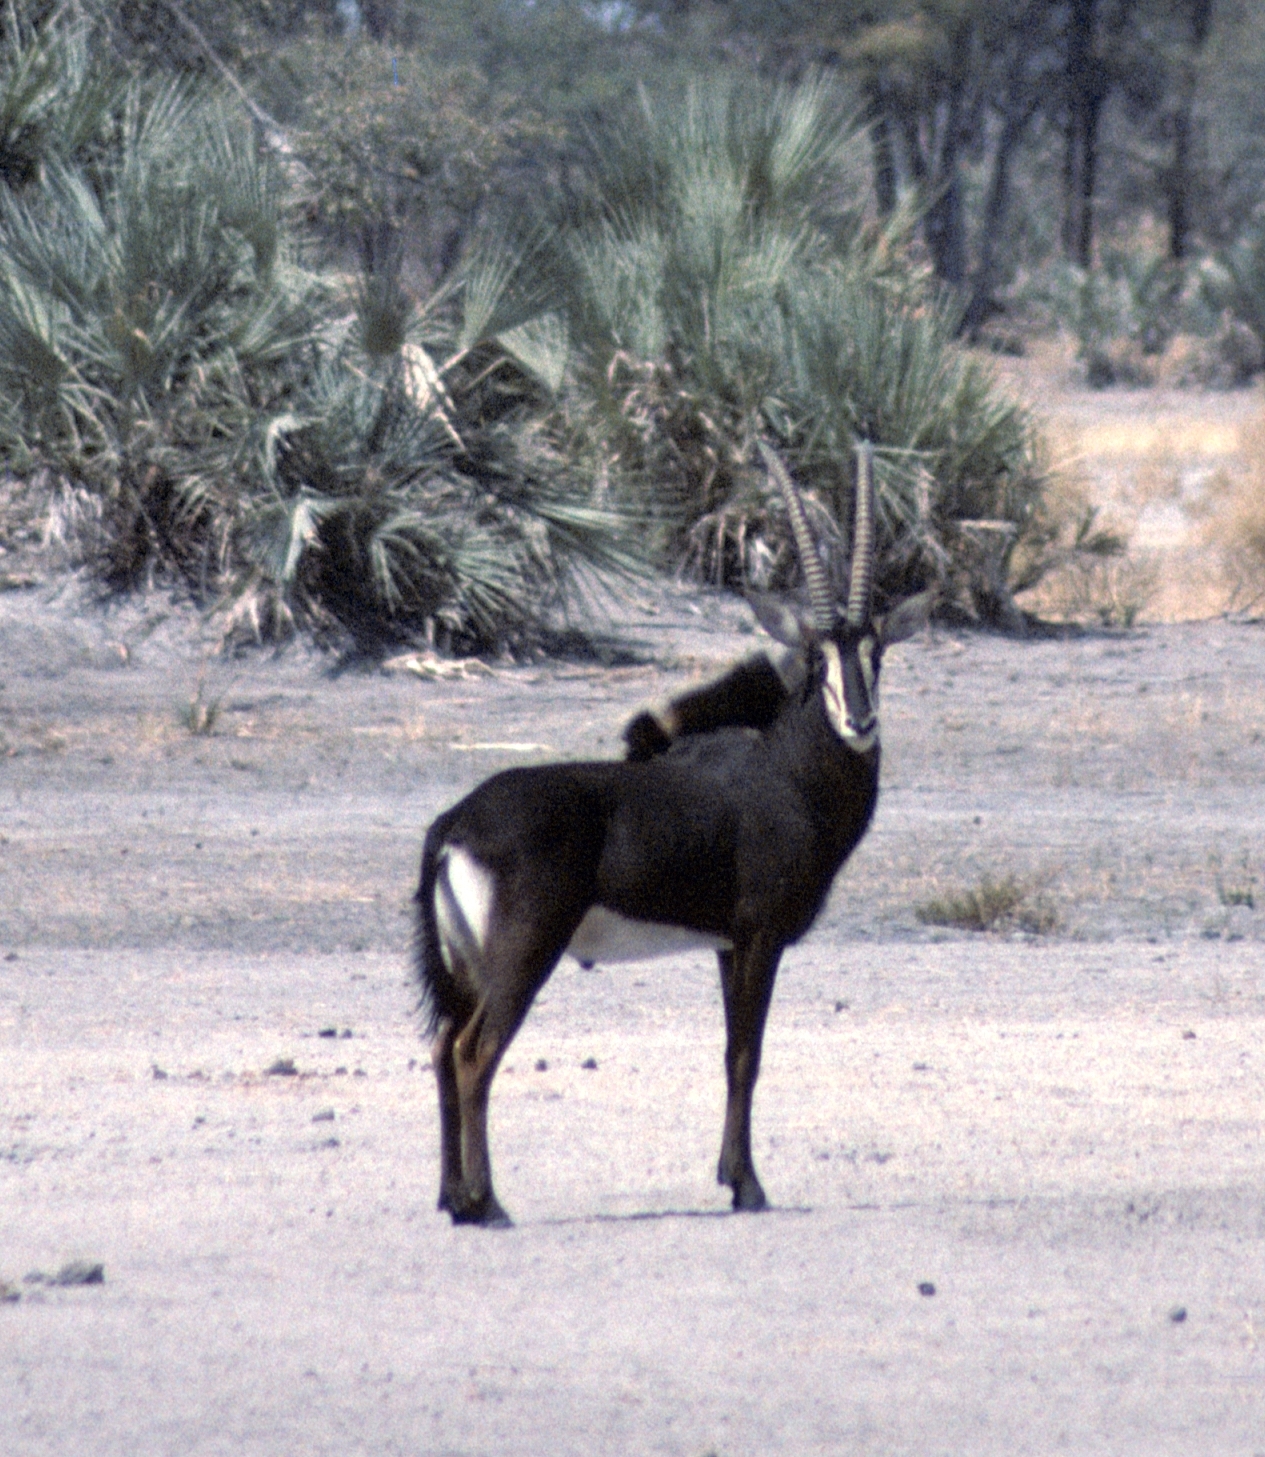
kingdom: Animalia
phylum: Chordata
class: Mammalia
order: Artiodactyla
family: Bovidae
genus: Hippotragus
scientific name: Hippotragus niger
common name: Sable antelope
